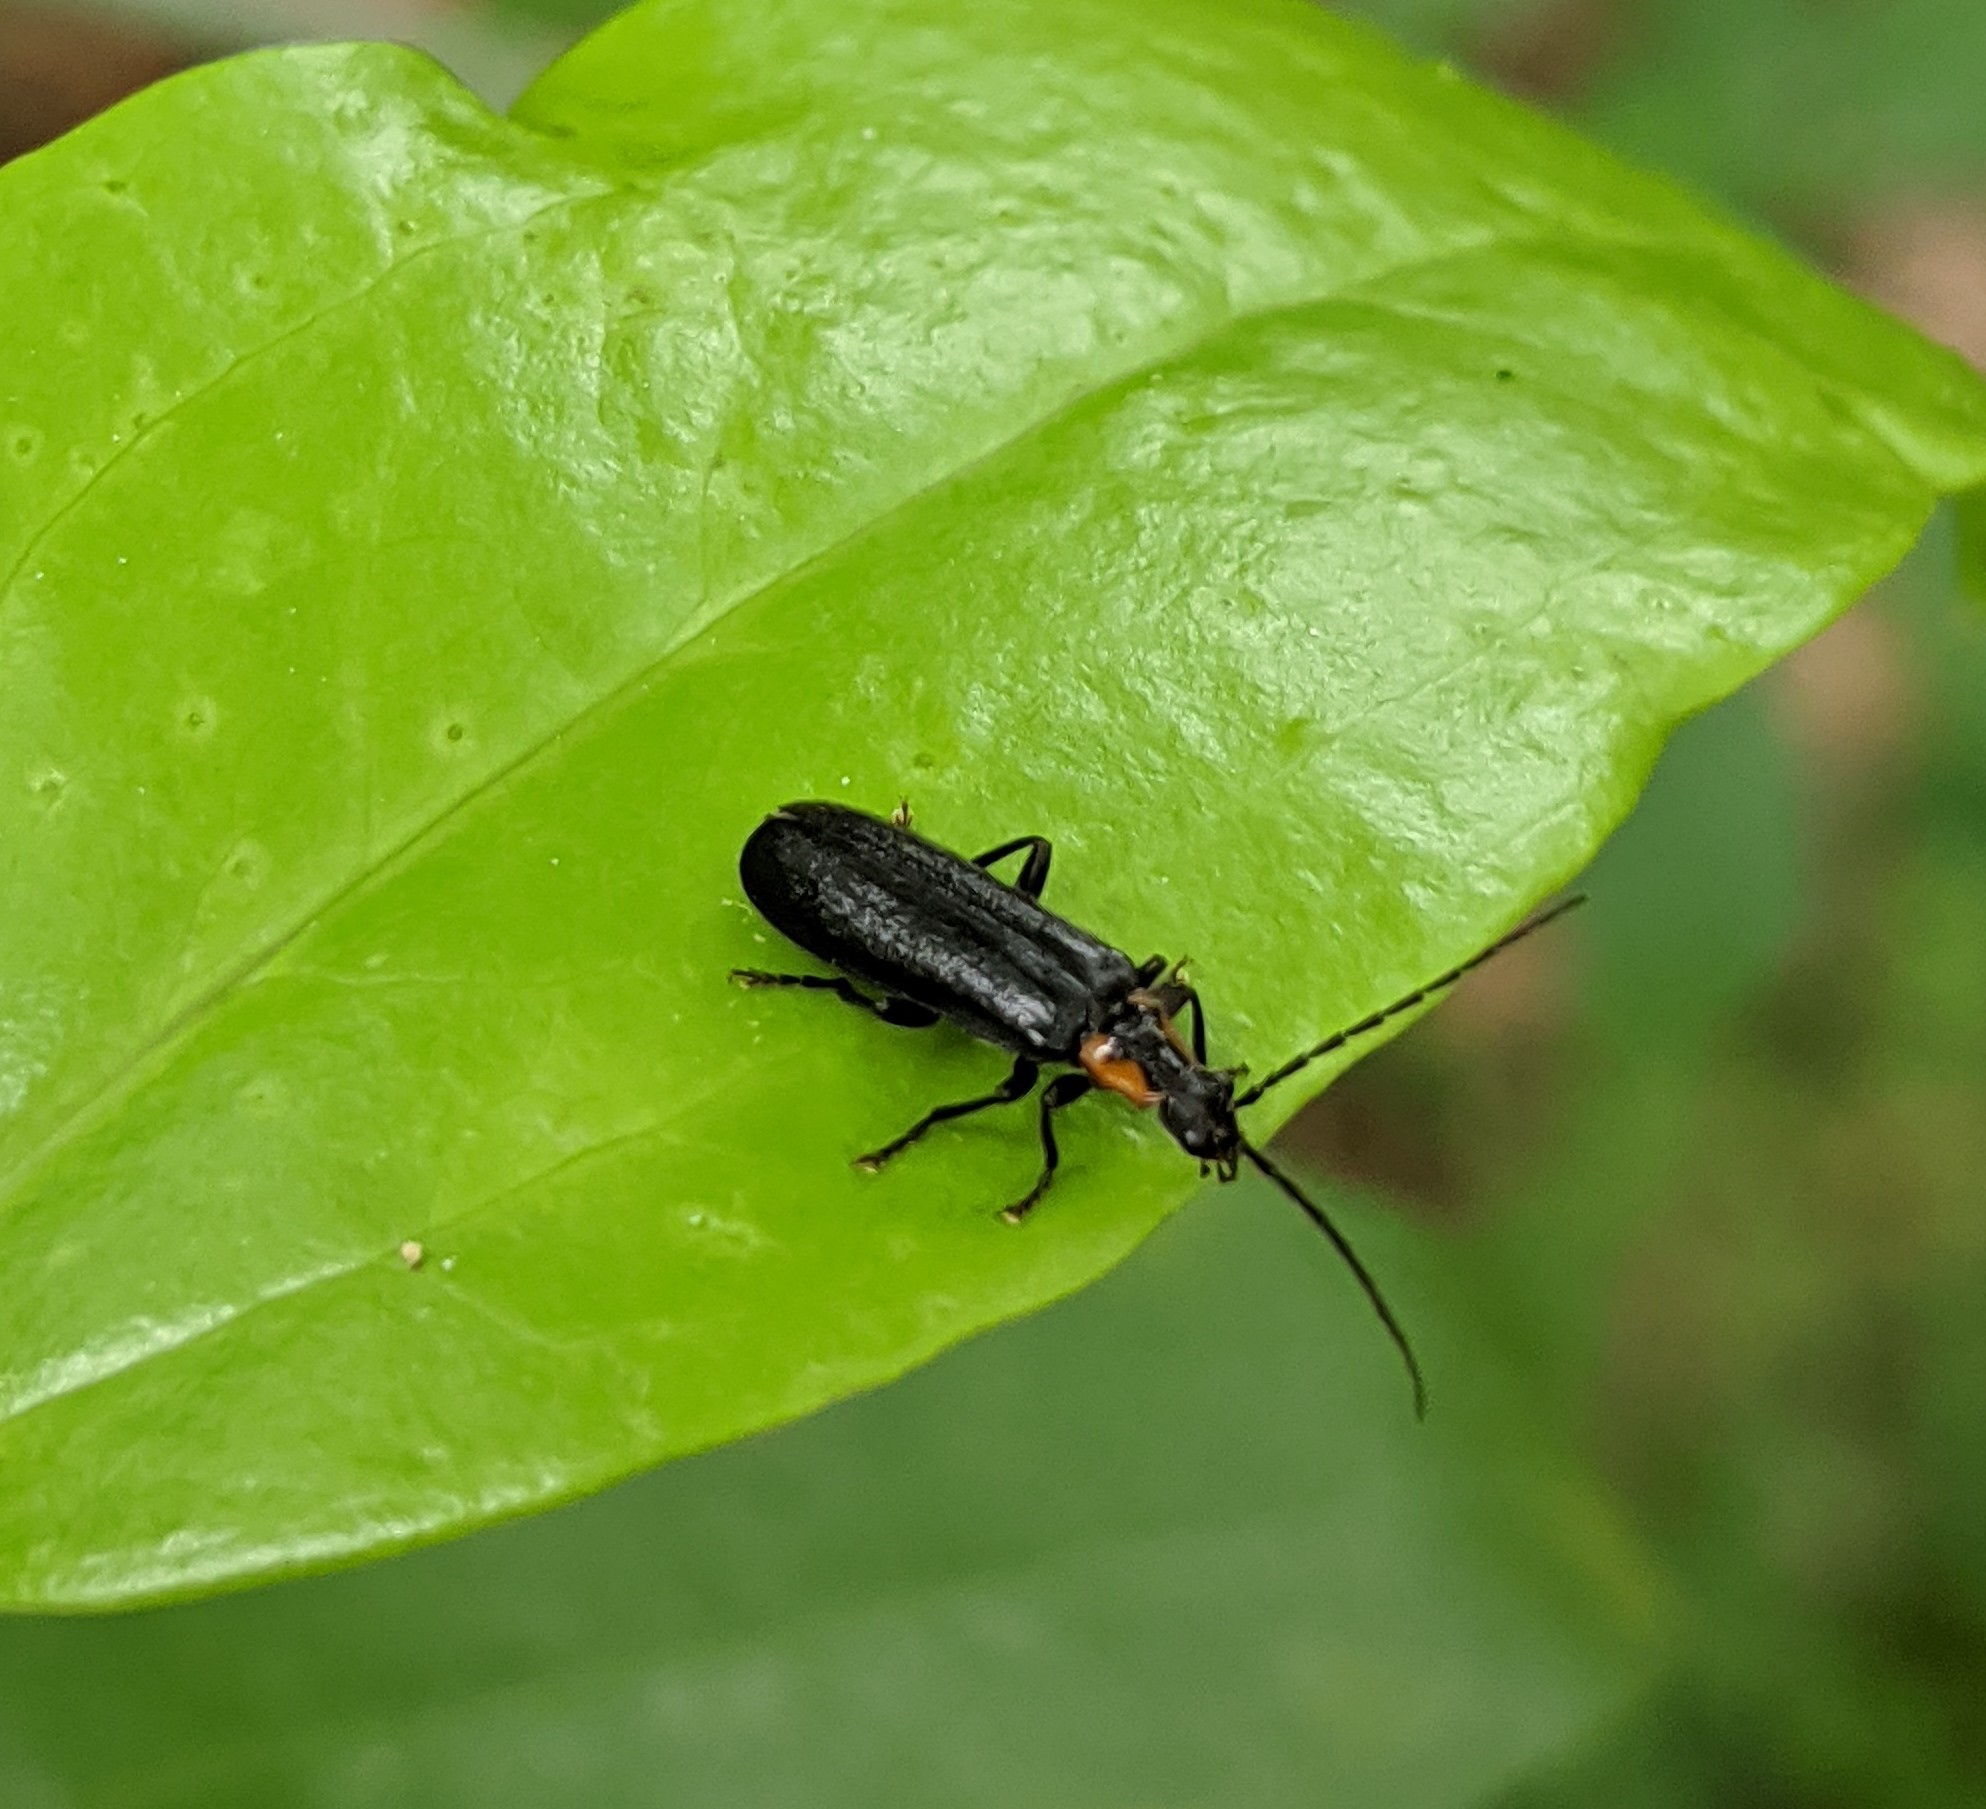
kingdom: Animalia
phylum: Arthropoda
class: Insecta
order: Coleoptera
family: Cantharidae
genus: Rhagonycha
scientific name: Rhagonycha angulata
